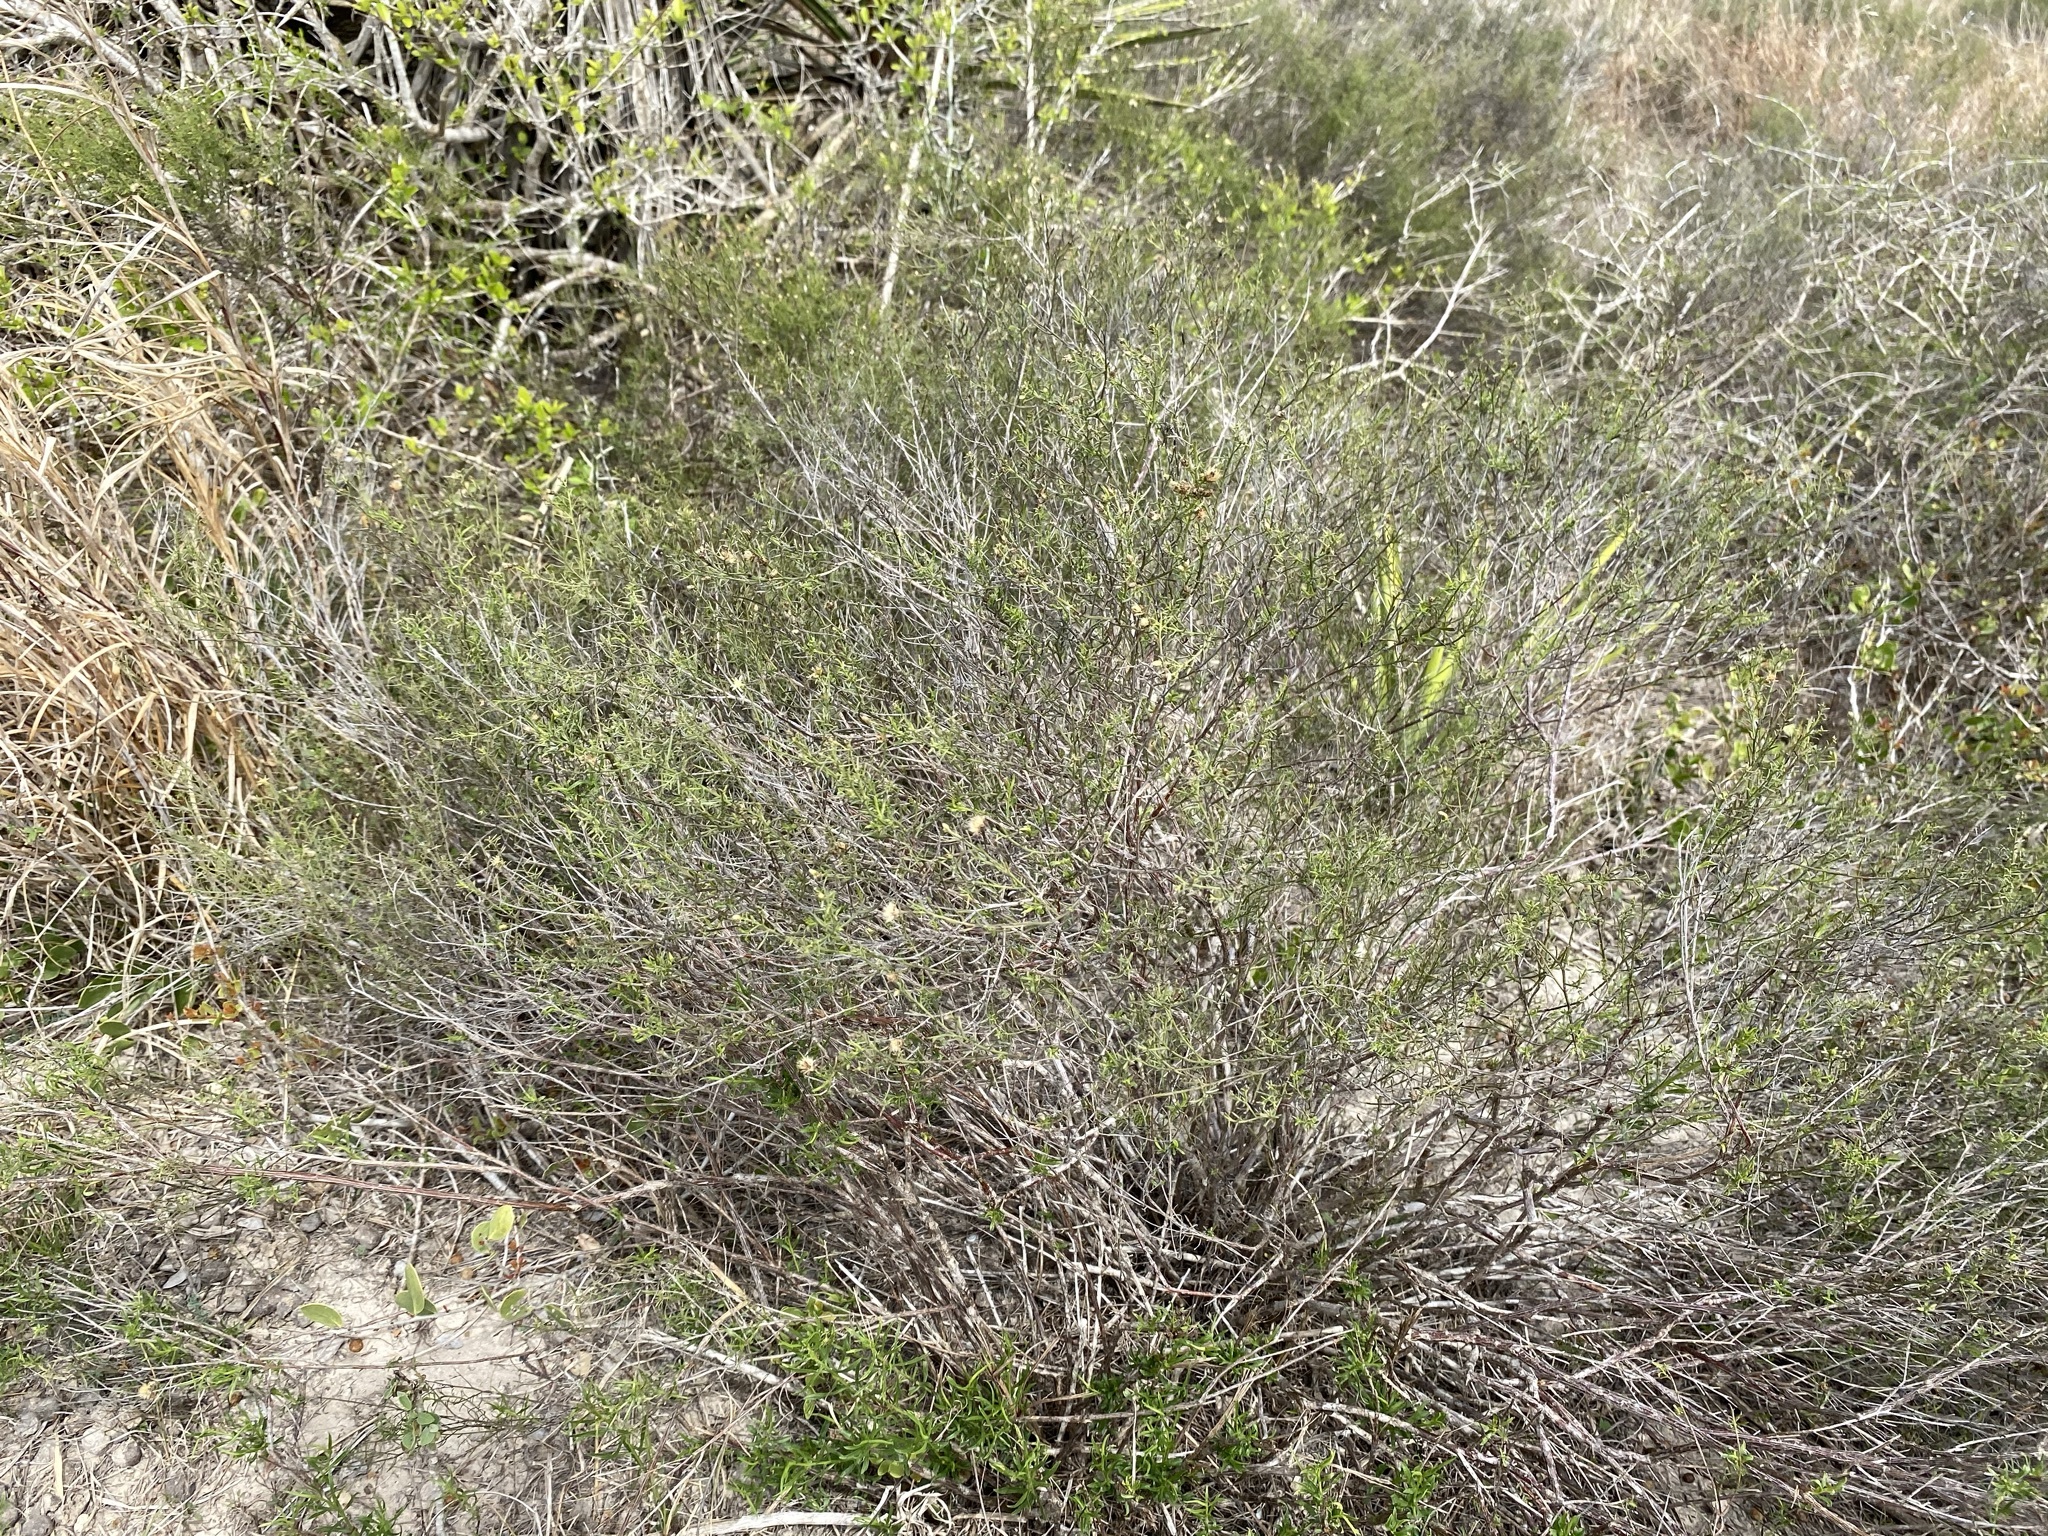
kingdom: Plantae
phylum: Tracheophyta
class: Magnoliopsida
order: Asterales
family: Asteraceae
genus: Medranoa
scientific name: Medranoa palmeri
